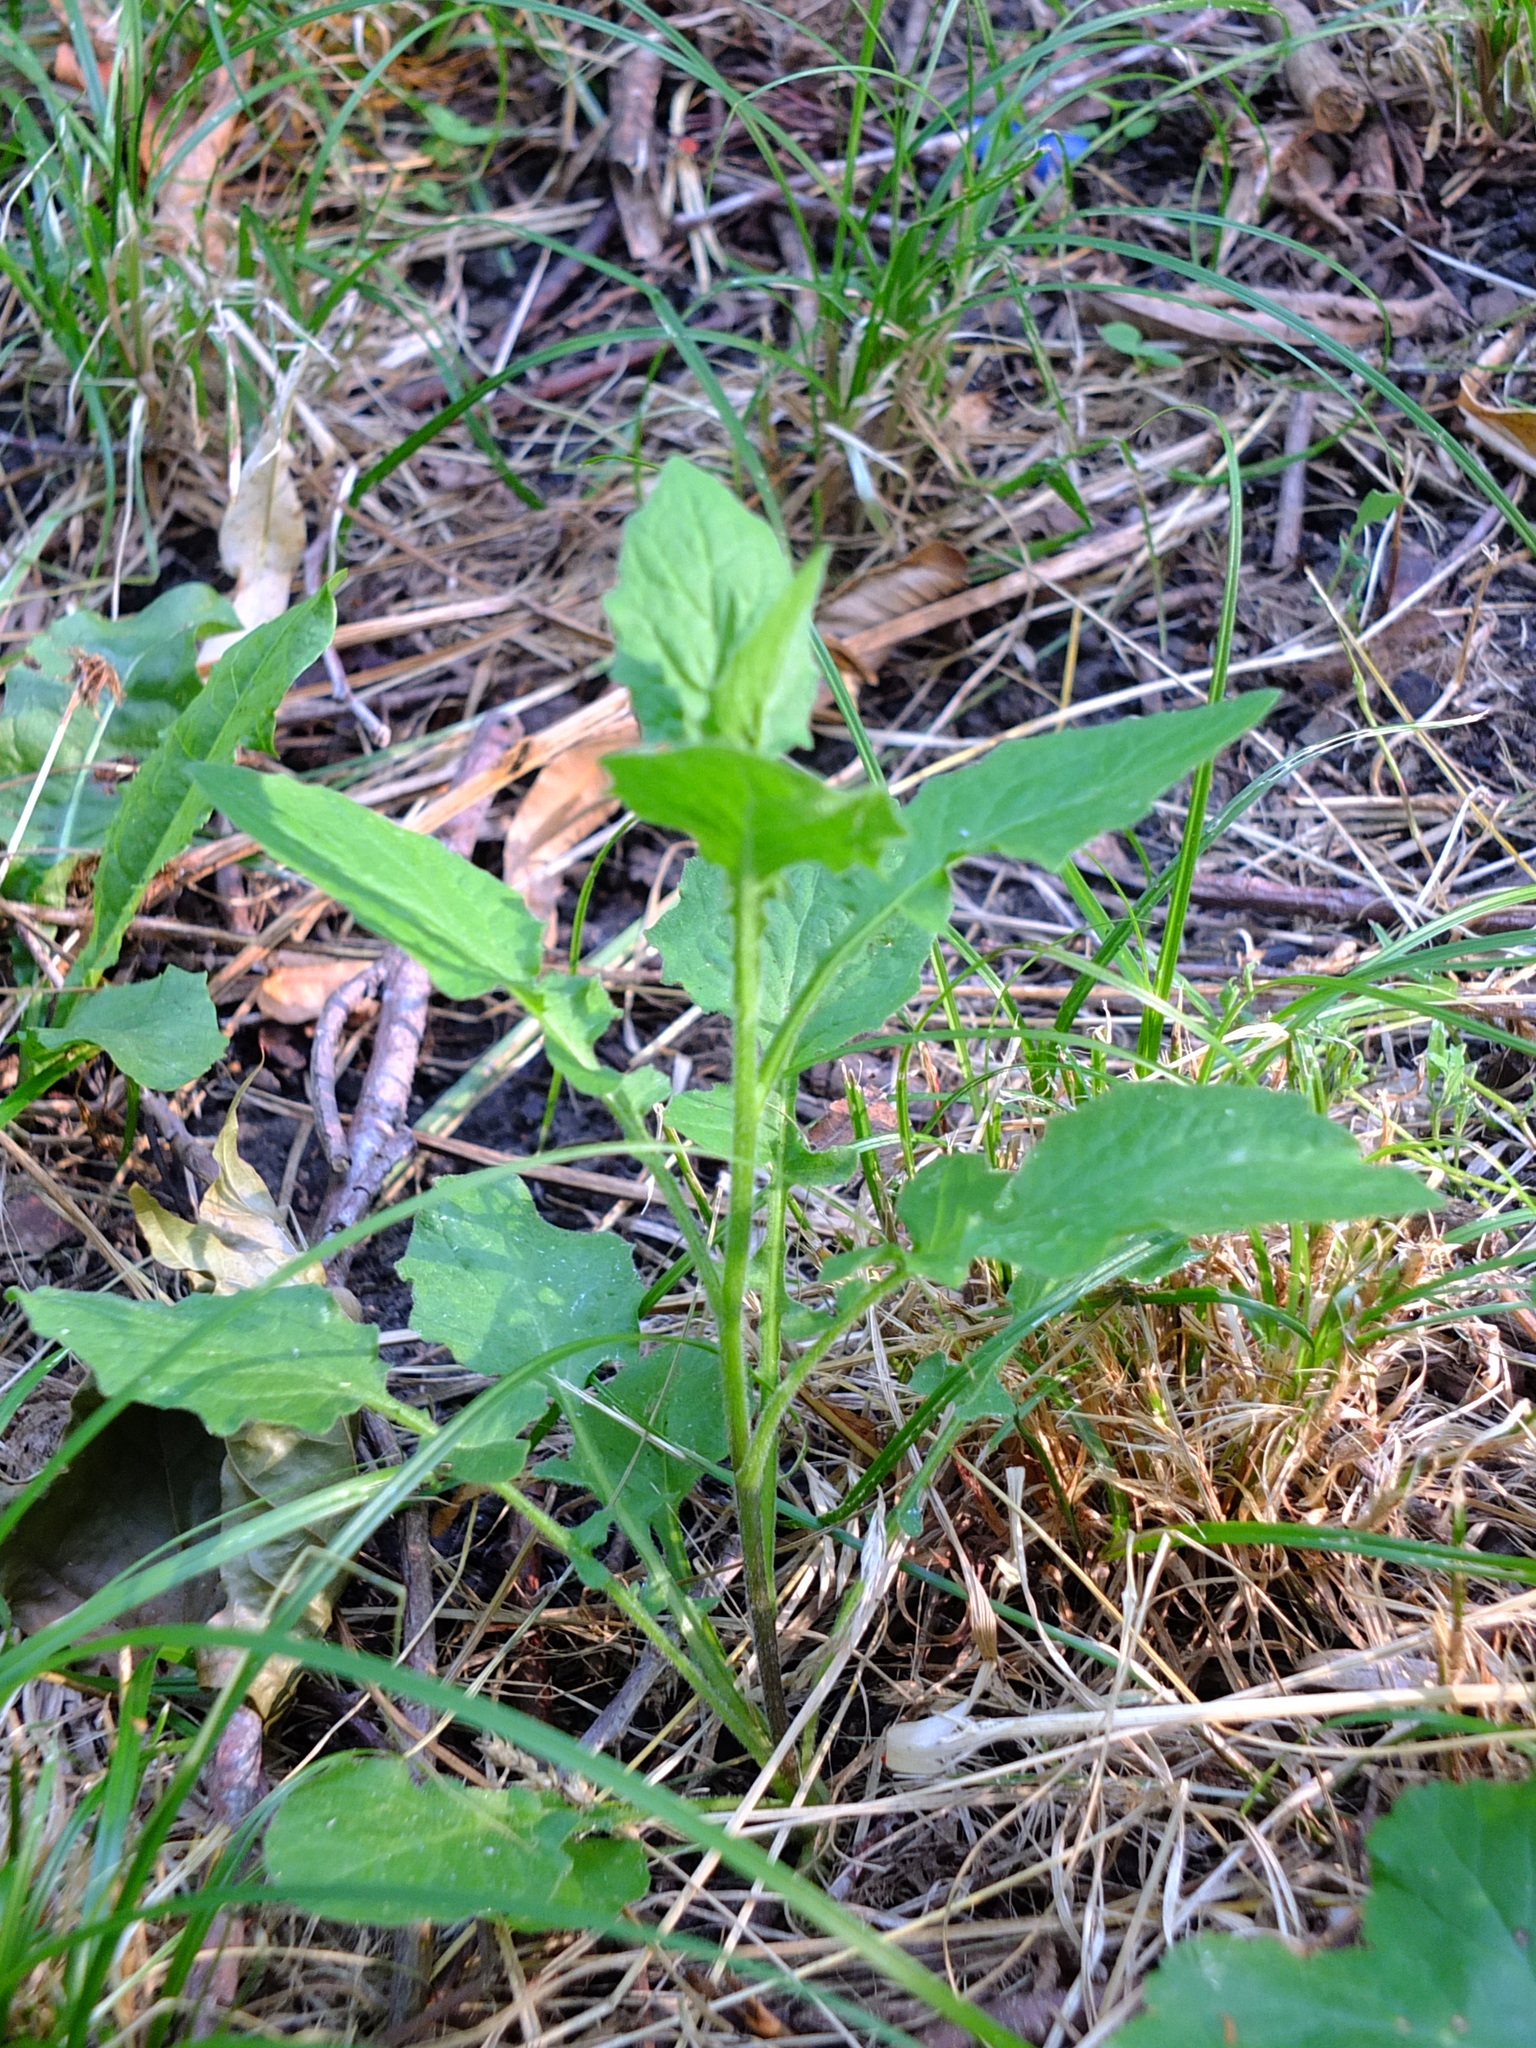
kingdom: Plantae
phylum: Tracheophyta
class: Magnoliopsida
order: Asterales
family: Asteraceae
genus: Lapsana
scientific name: Lapsana communis
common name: Nipplewort
